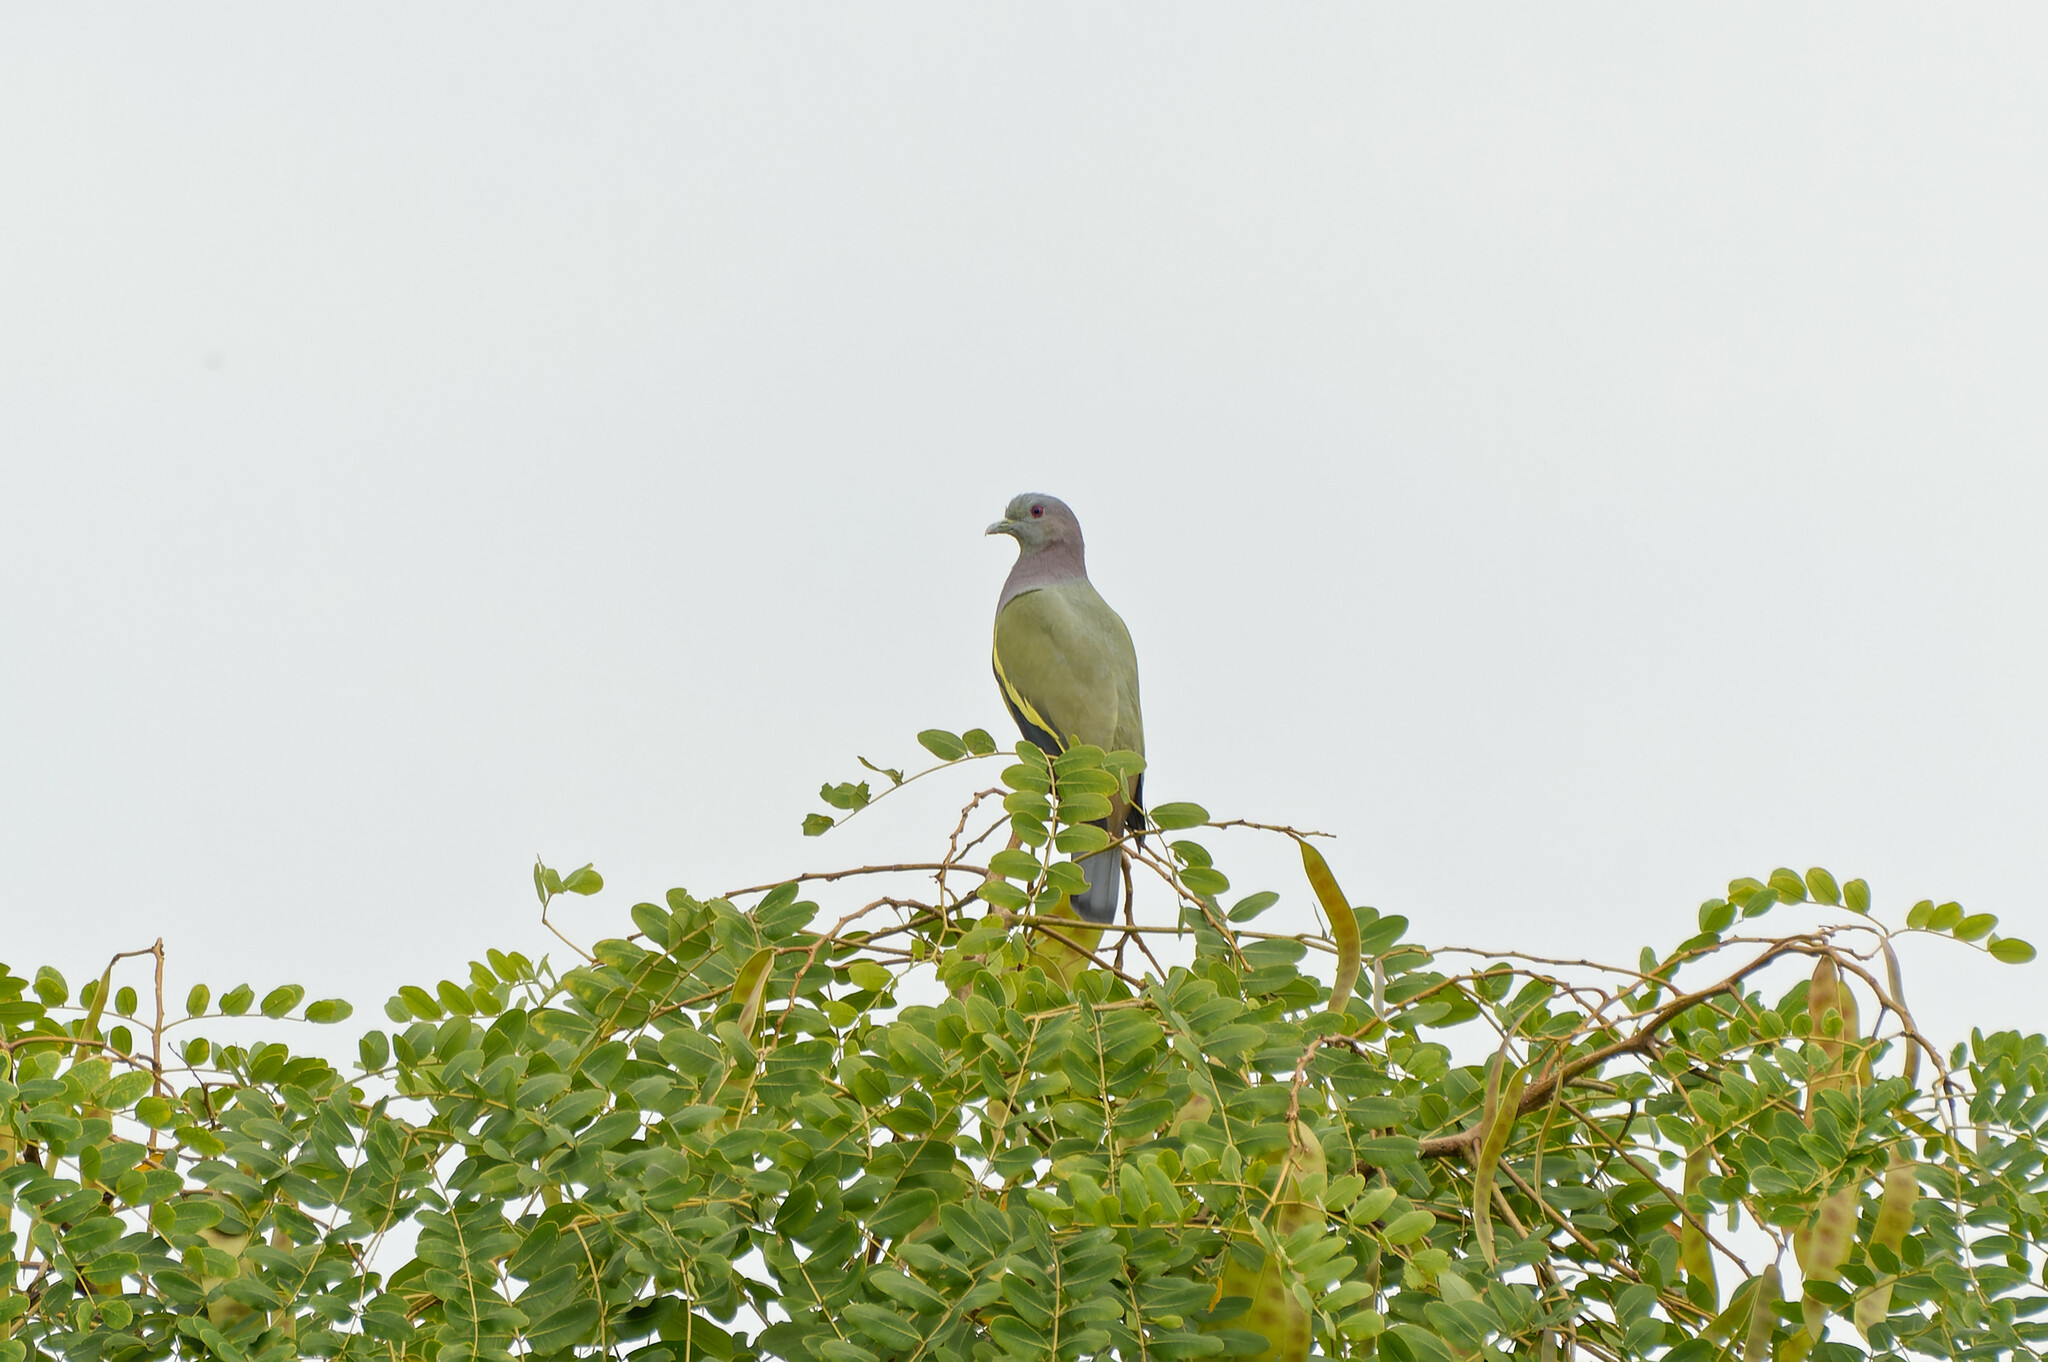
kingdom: Animalia
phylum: Chordata
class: Aves
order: Columbiformes
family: Columbidae
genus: Treron
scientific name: Treron vernans
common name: Pink-necked green pigeon
